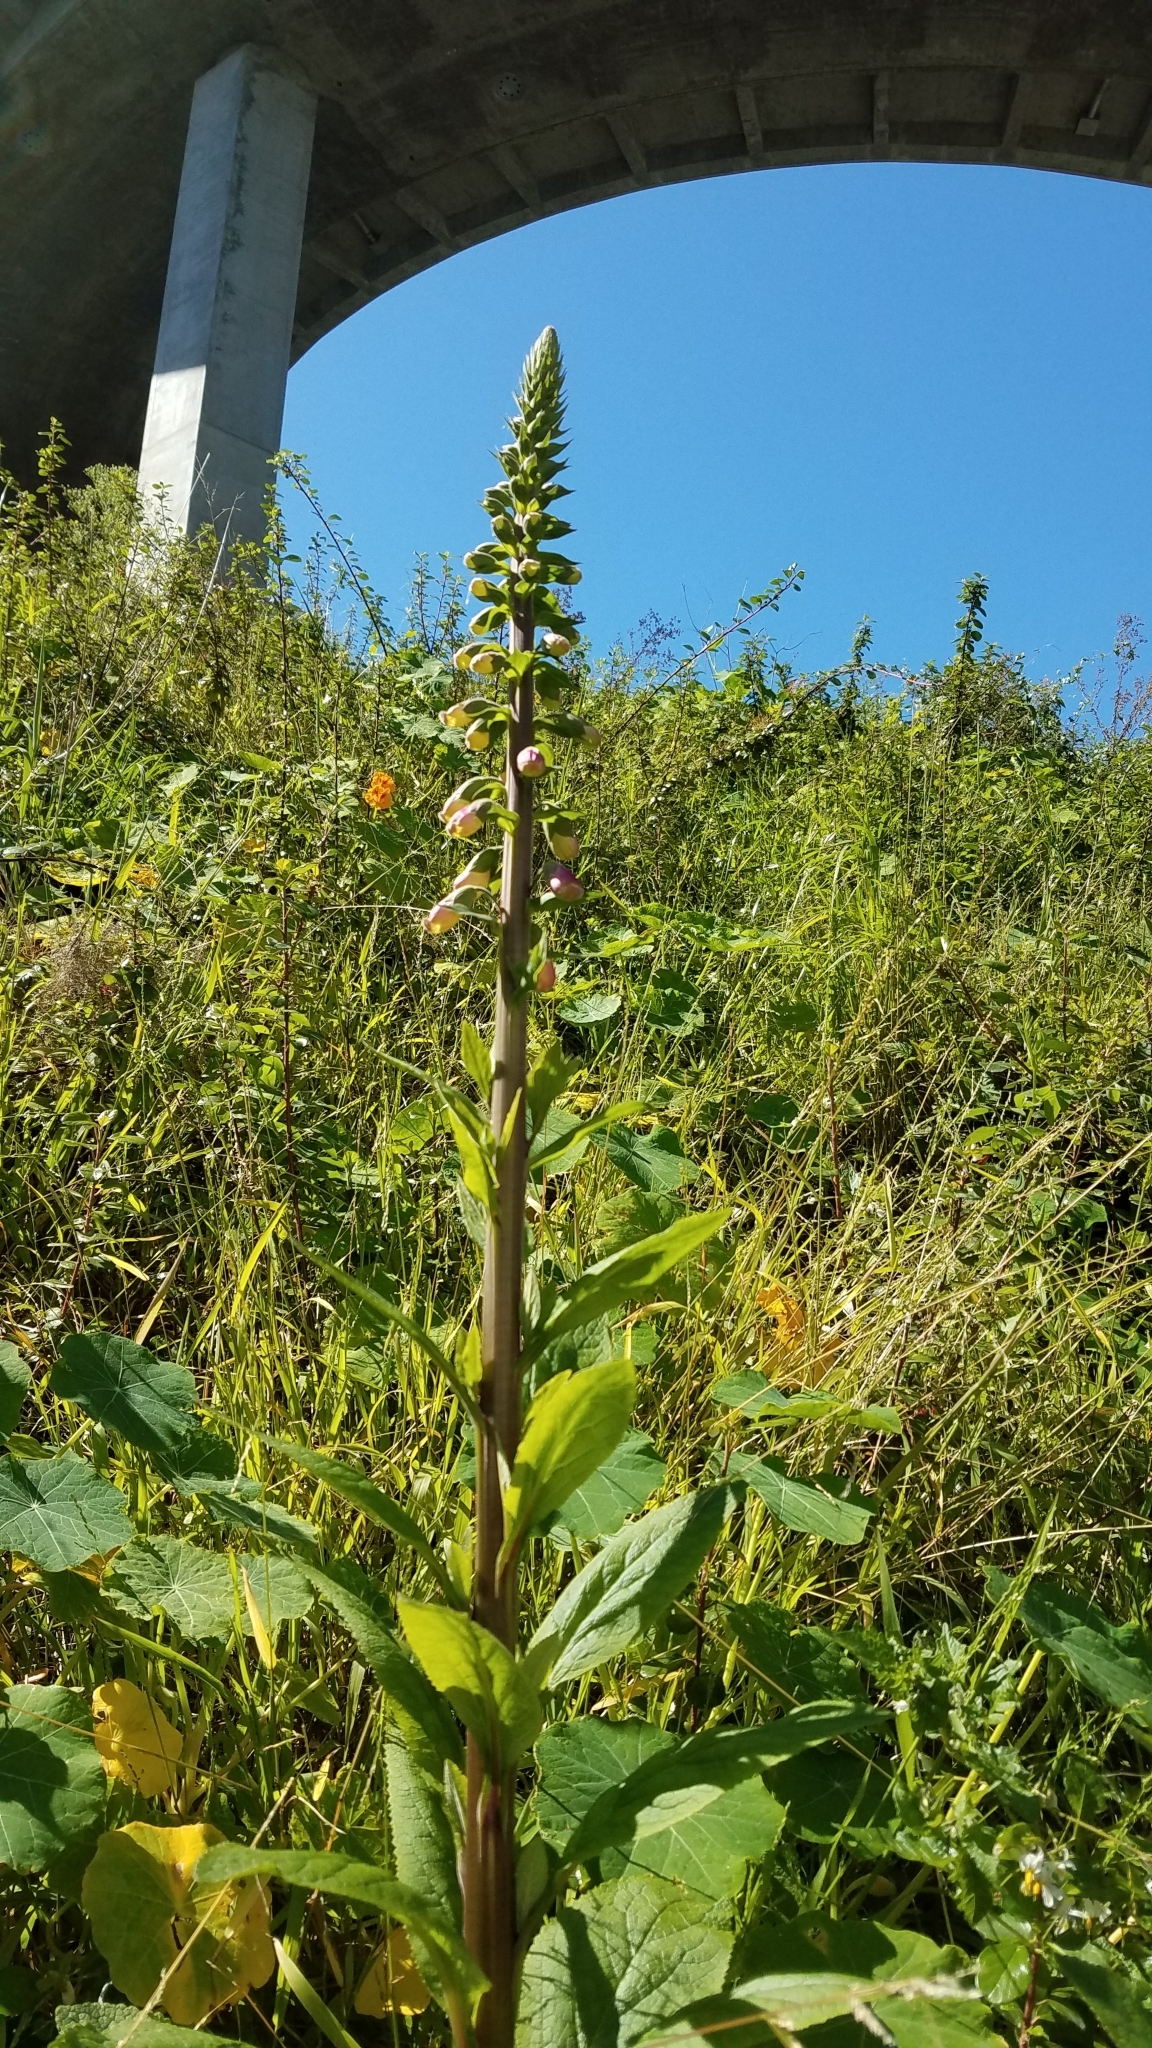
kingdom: Plantae
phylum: Tracheophyta
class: Magnoliopsida
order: Lamiales
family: Plantaginaceae
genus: Digitalis
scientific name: Digitalis purpurea
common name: Foxglove
